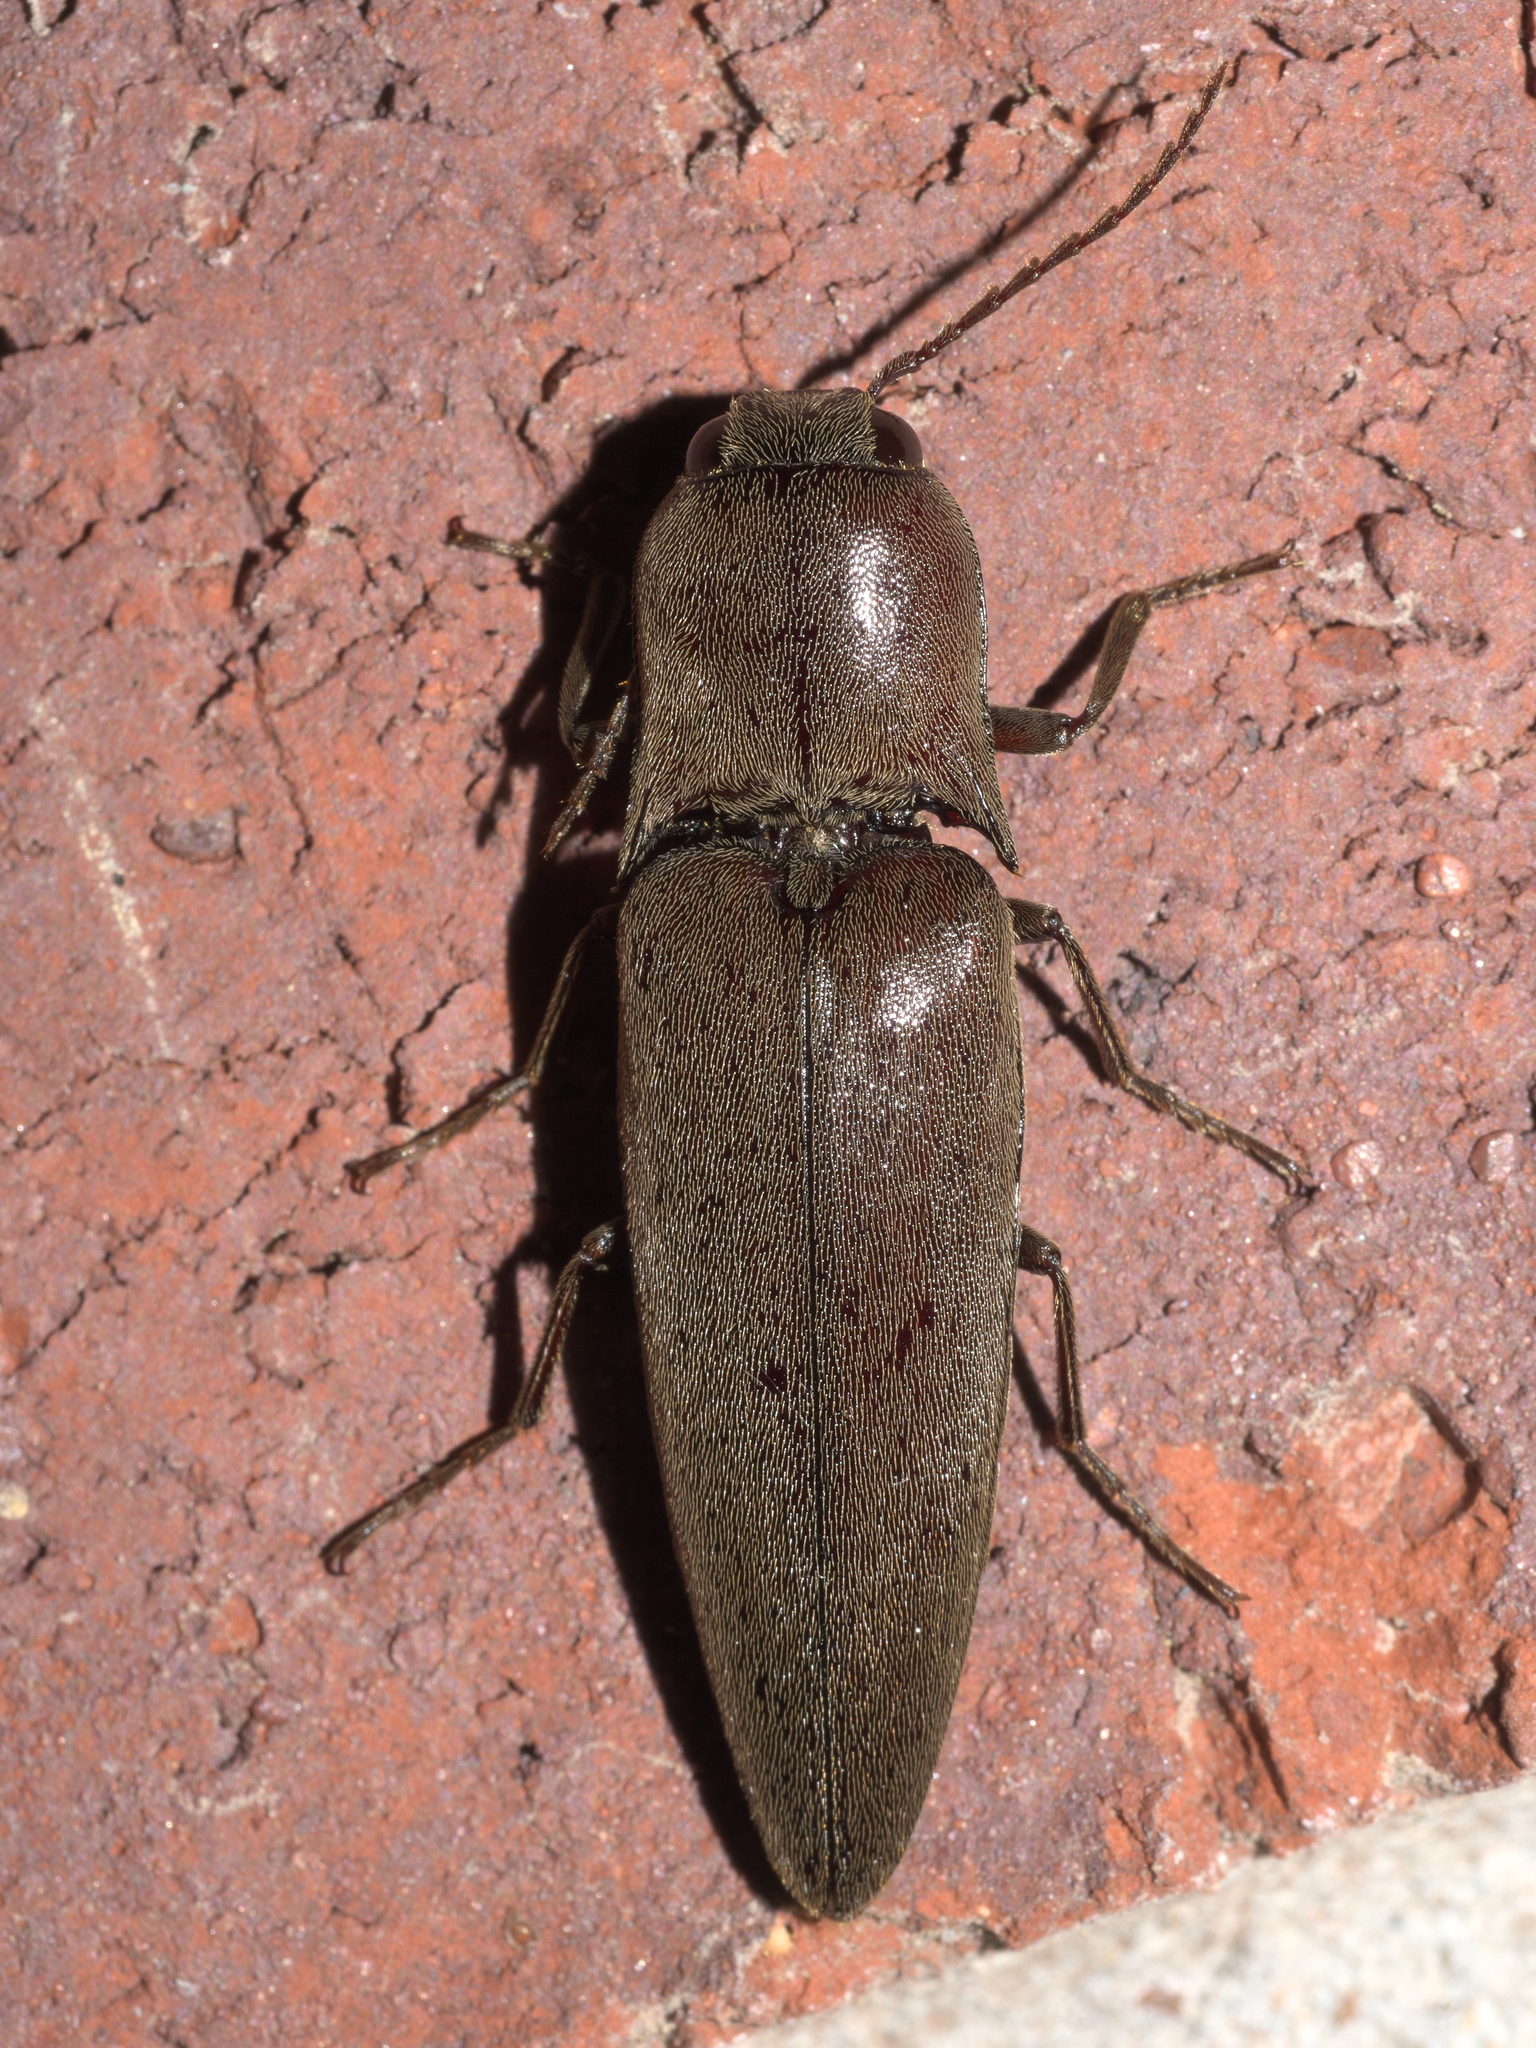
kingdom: Animalia
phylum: Arthropoda
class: Insecta
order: Coleoptera
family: Elateridae
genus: Orthostethus
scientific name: Orthostethus infuscatus
